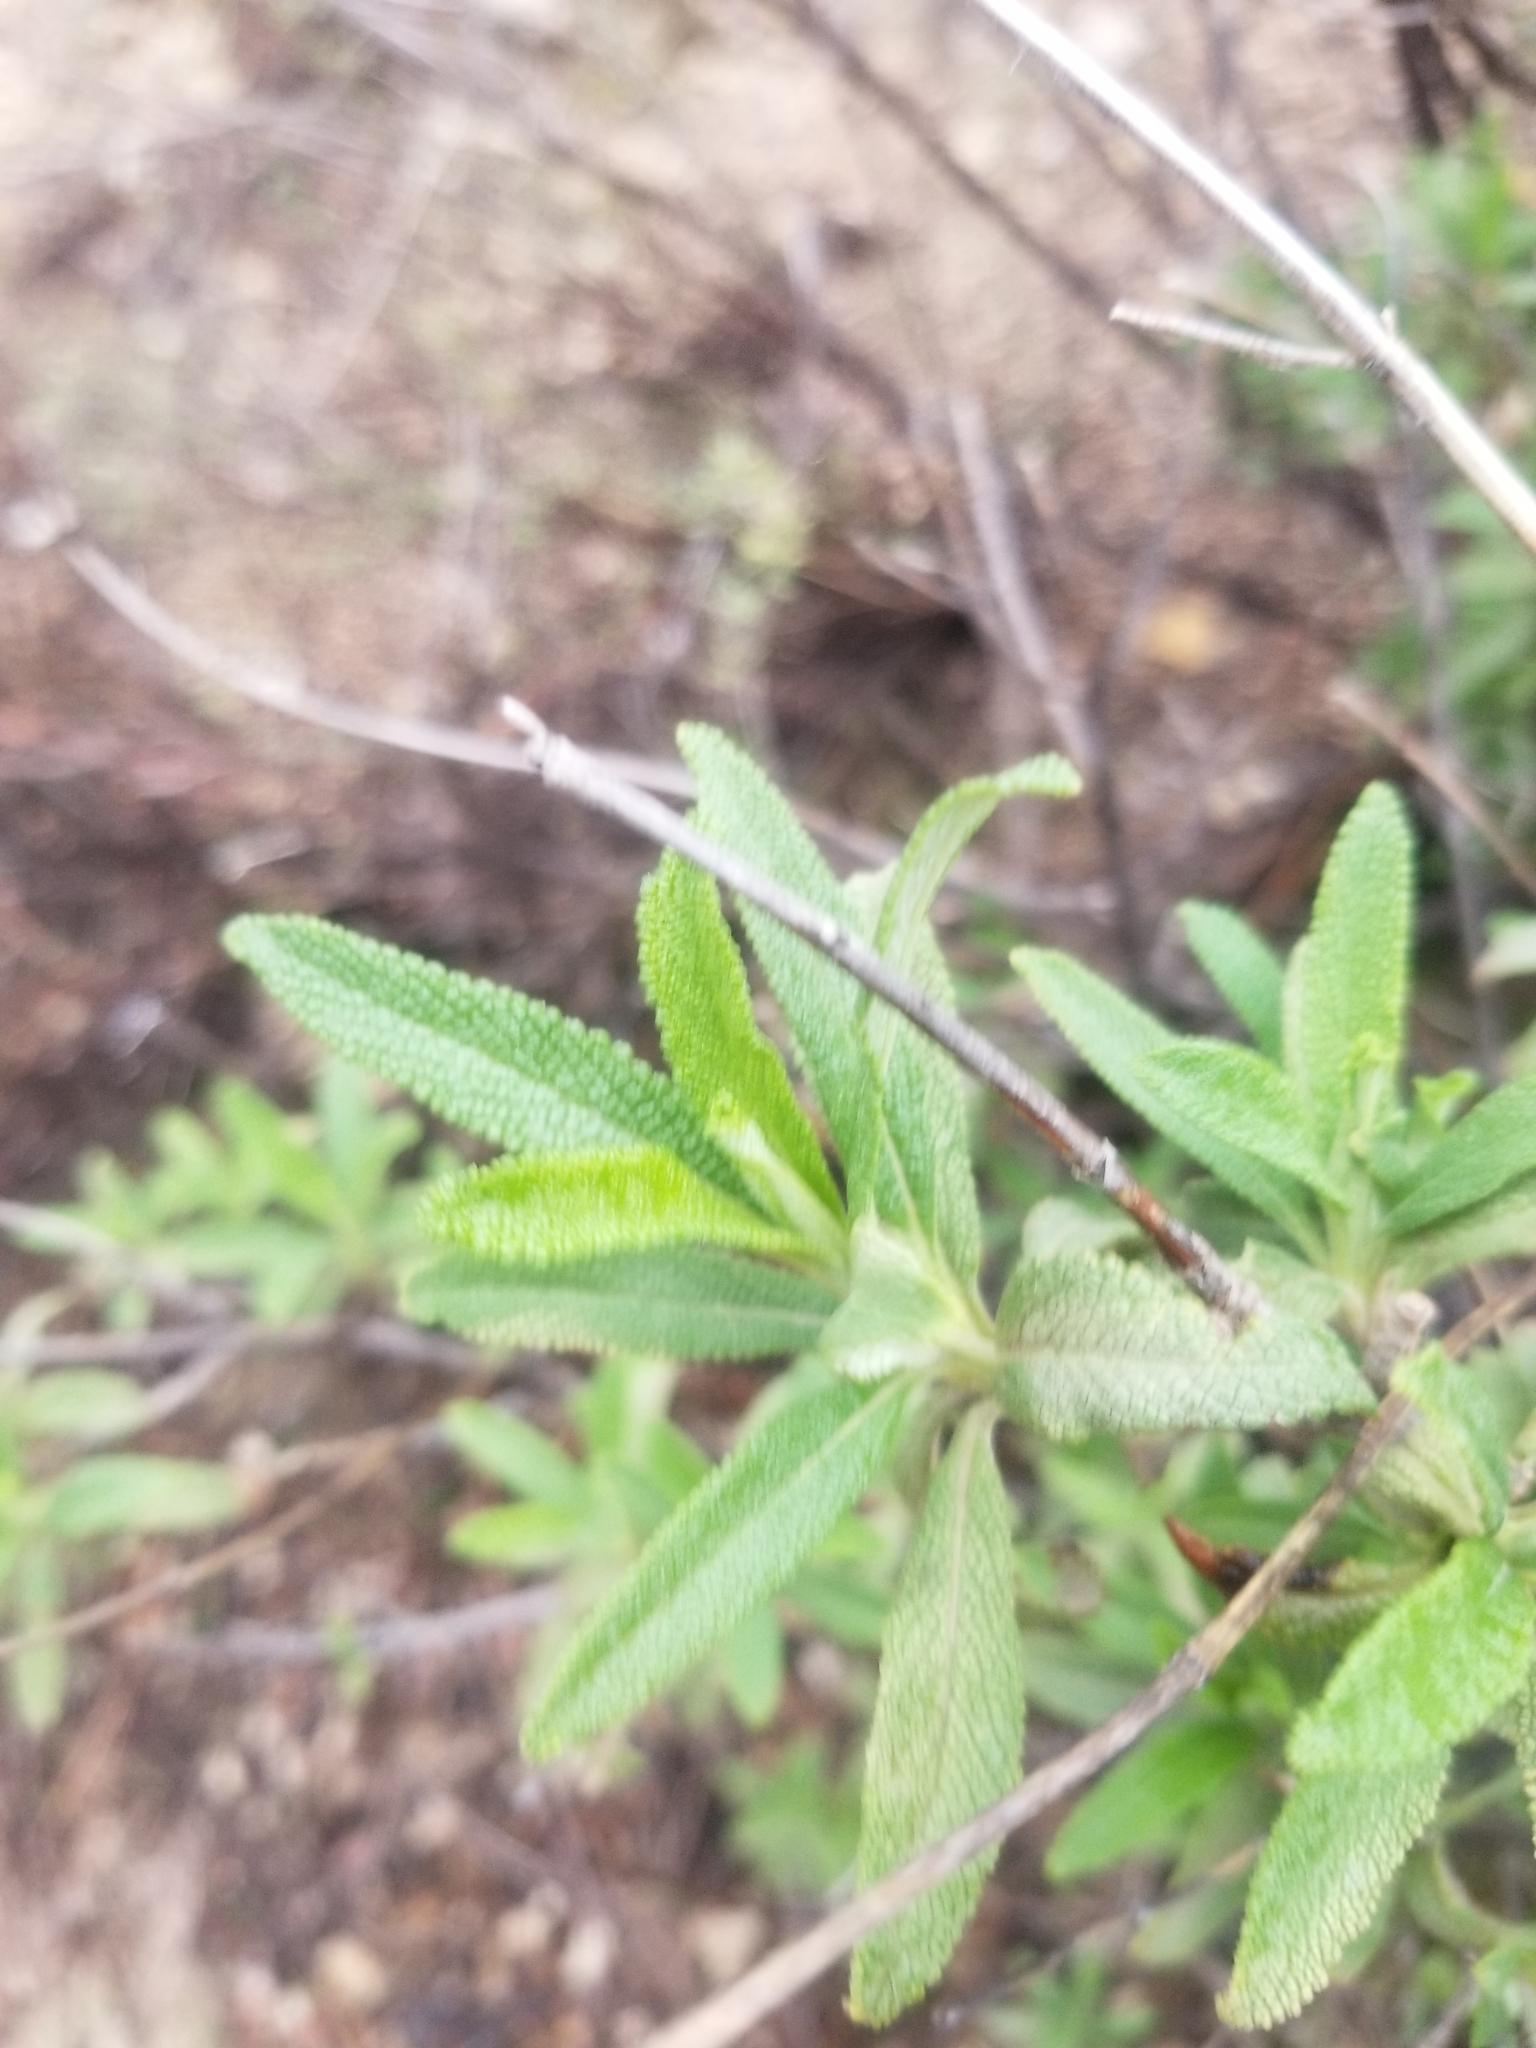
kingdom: Plantae
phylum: Tracheophyta
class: Magnoliopsida
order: Lamiales
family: Lamiaceae
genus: Salvia
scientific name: Salvia mellifera
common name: Black sage
